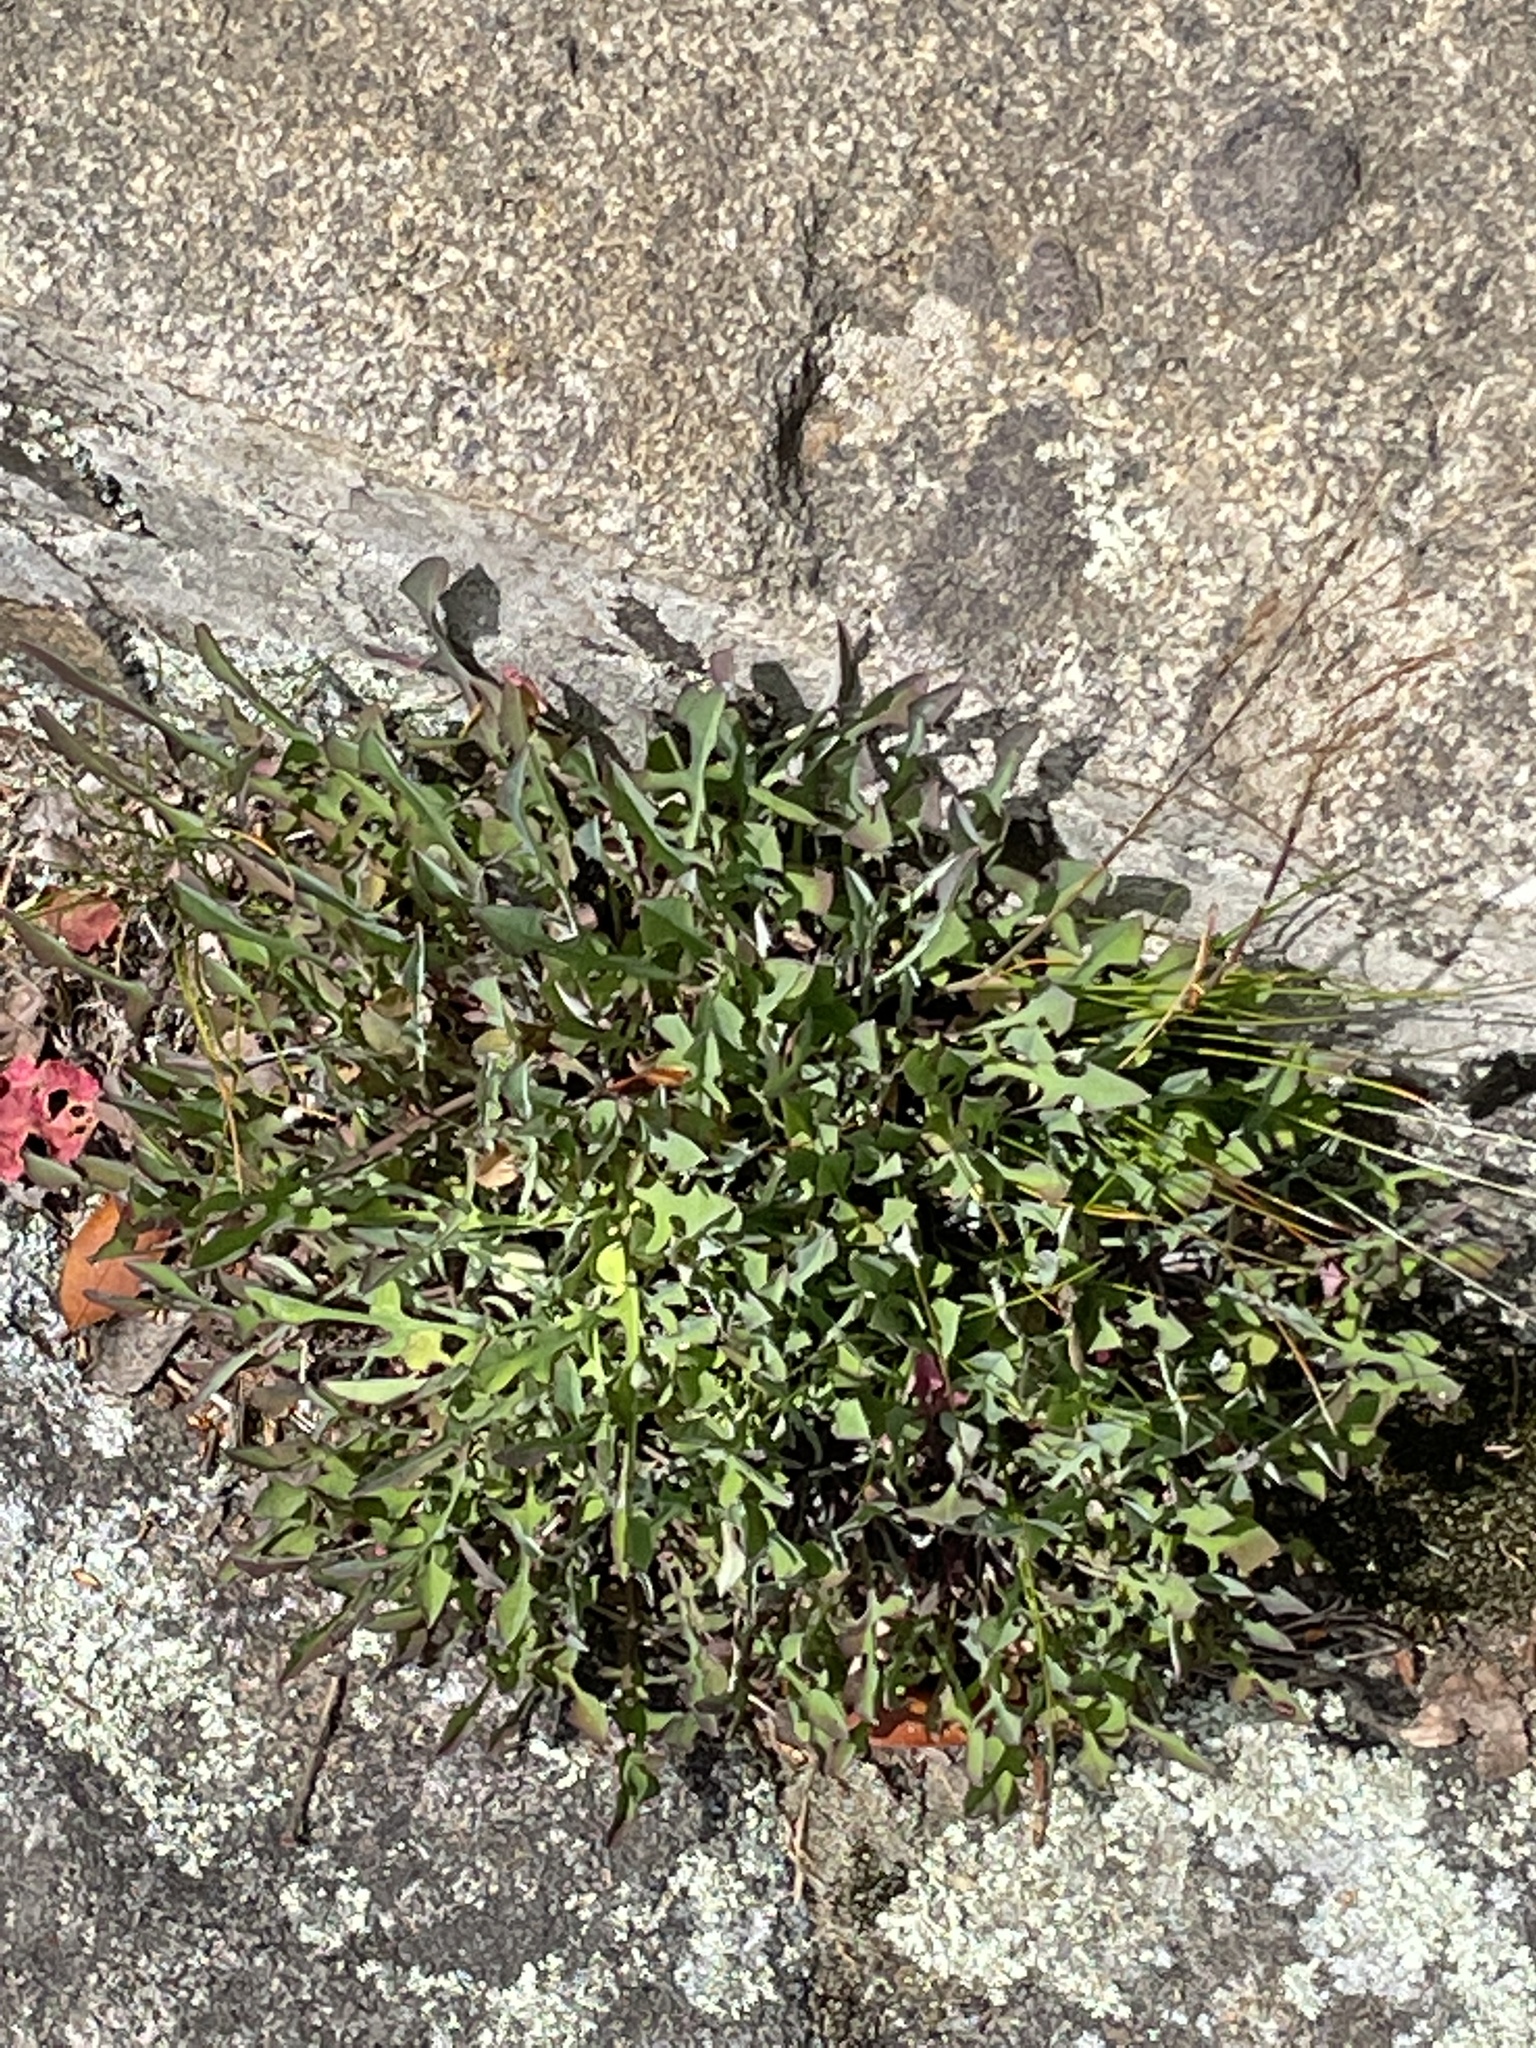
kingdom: Plantae
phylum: Tracheophyta
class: Magnoliopsida
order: Asterales
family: Asteraceae
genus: Krigia
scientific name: Krigia montana
